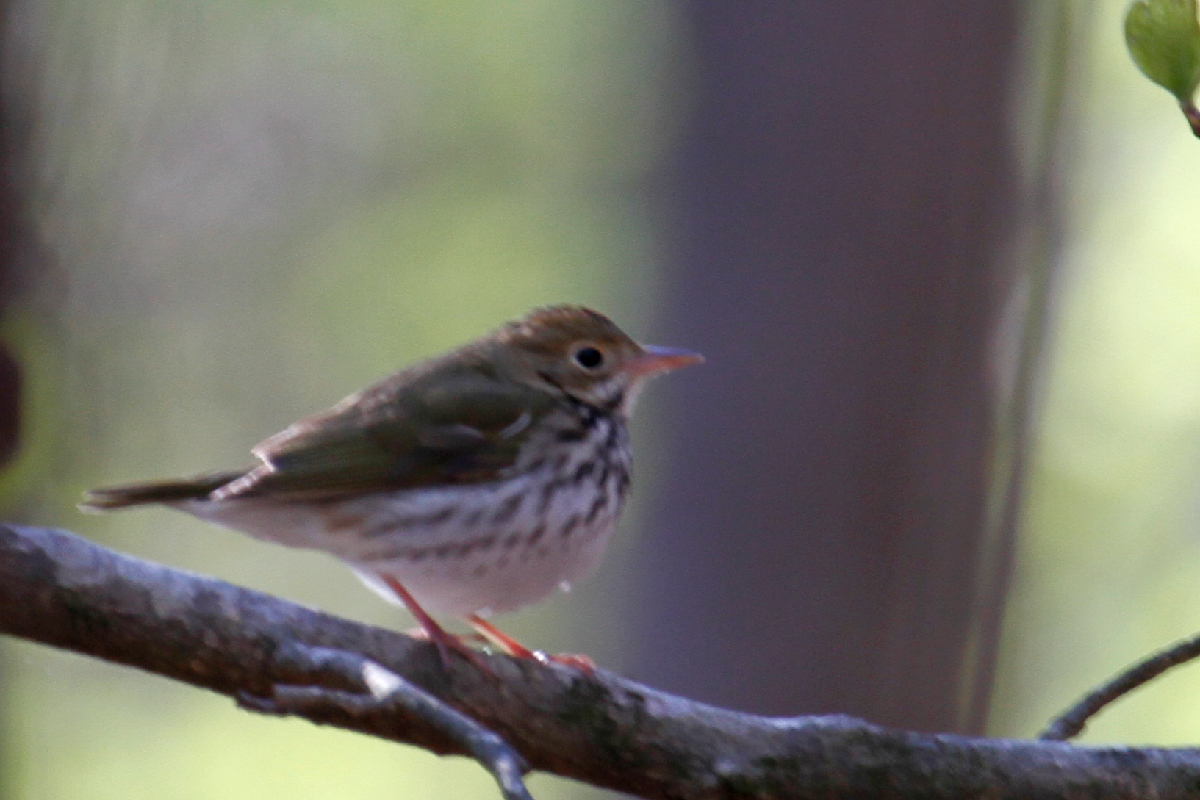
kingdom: Animalia
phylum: Chordata
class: Aves
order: Passeriformes
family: Parulidae
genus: Seiurus
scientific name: Seiurus aurocapilla
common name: Ovenbird
